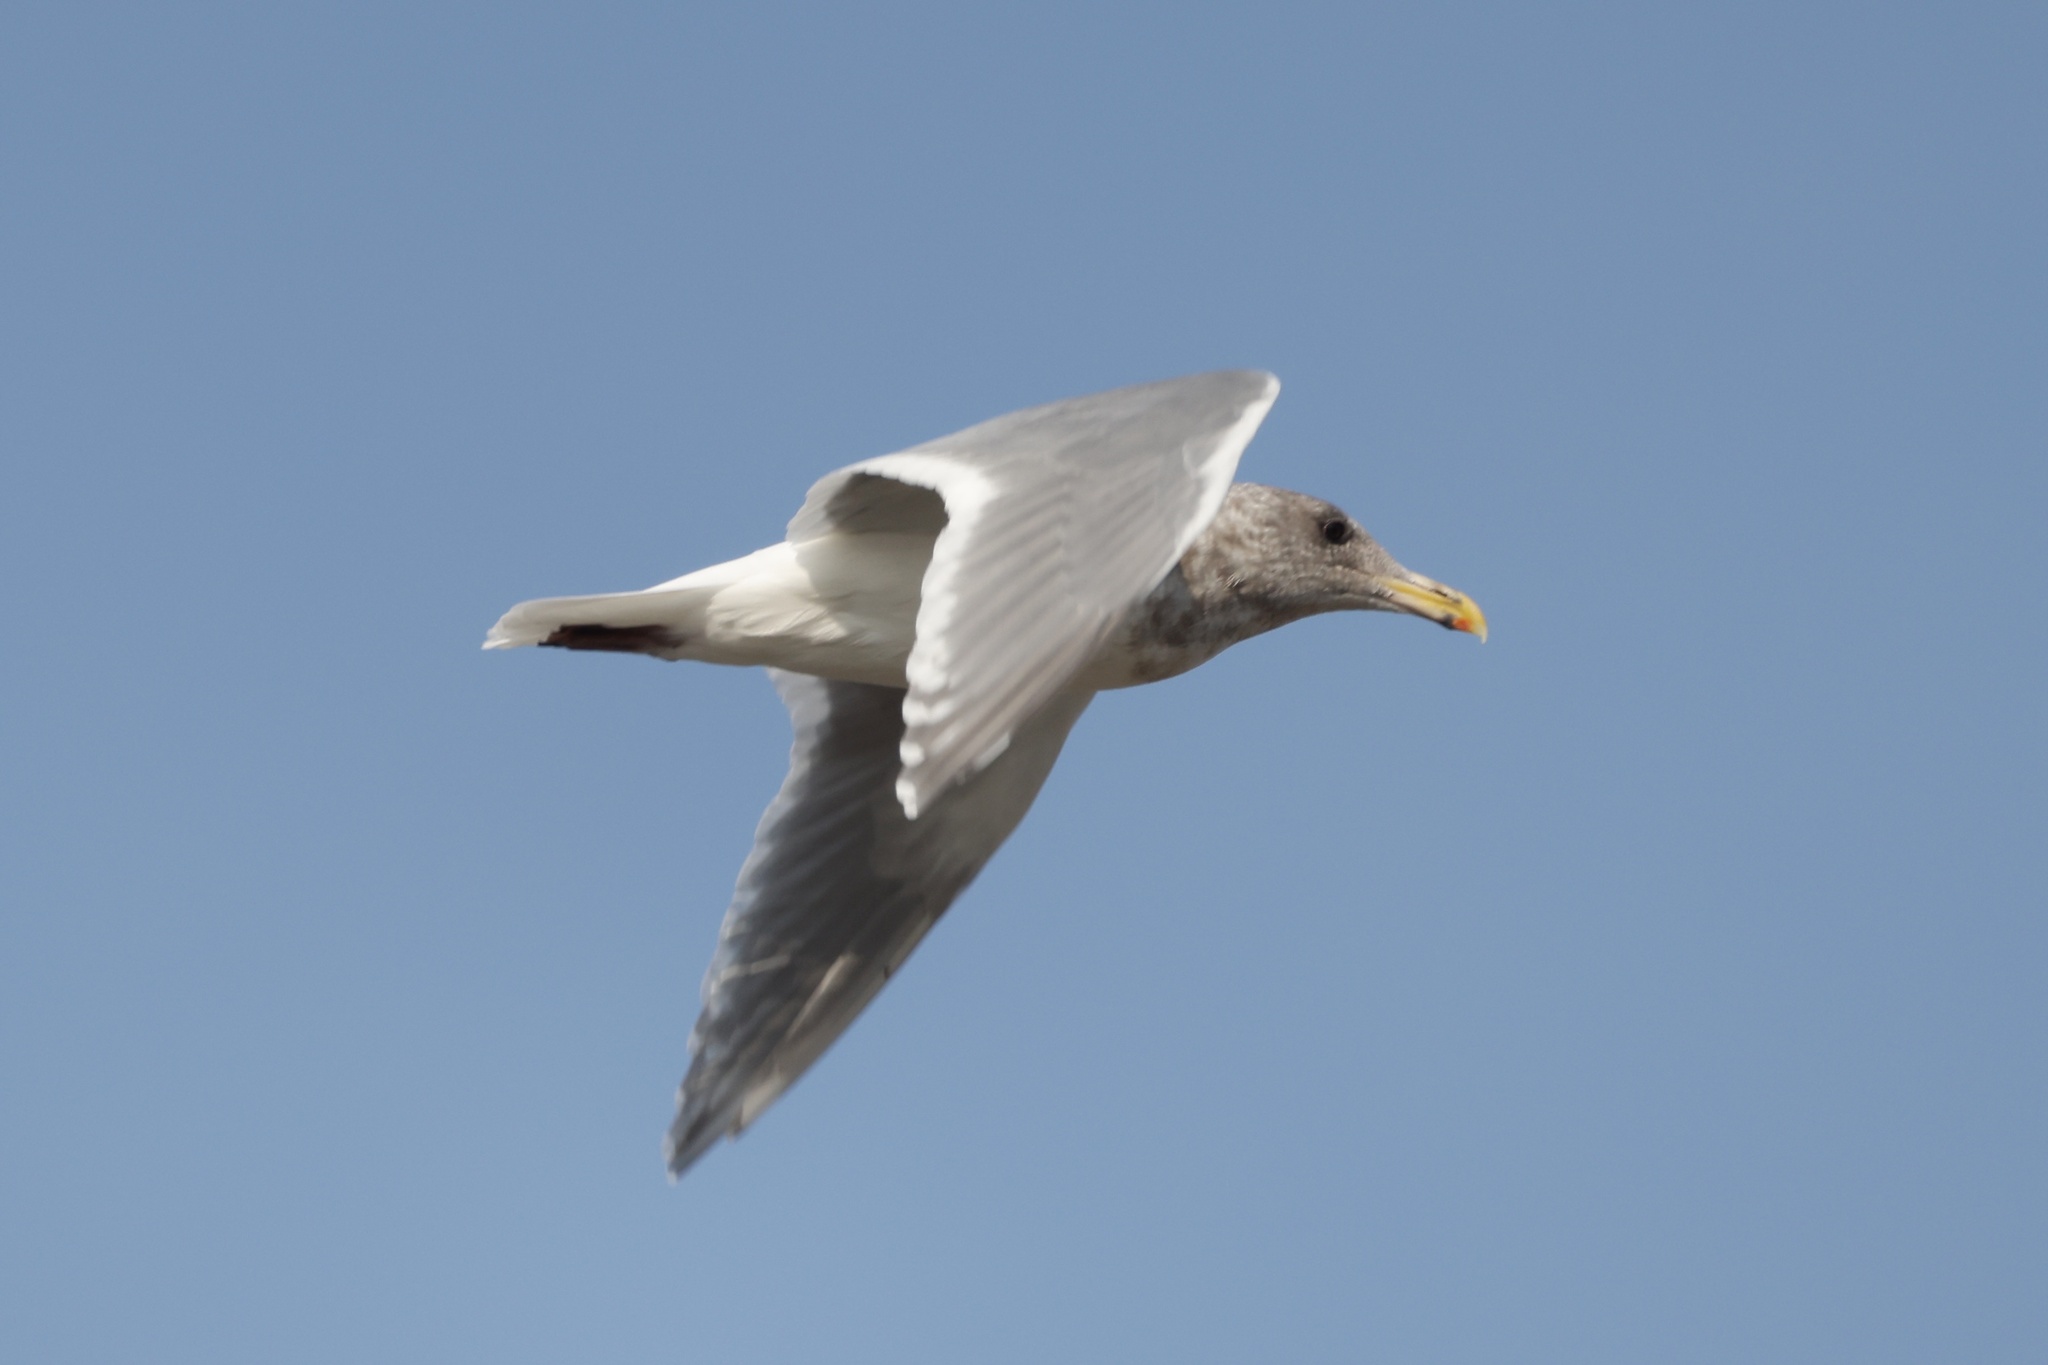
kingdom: Animalia
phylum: Chordata
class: Aves
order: Charadriiformes
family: Laridae
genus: Larus
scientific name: Larus glaucescens
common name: Glaucous-winged gull
